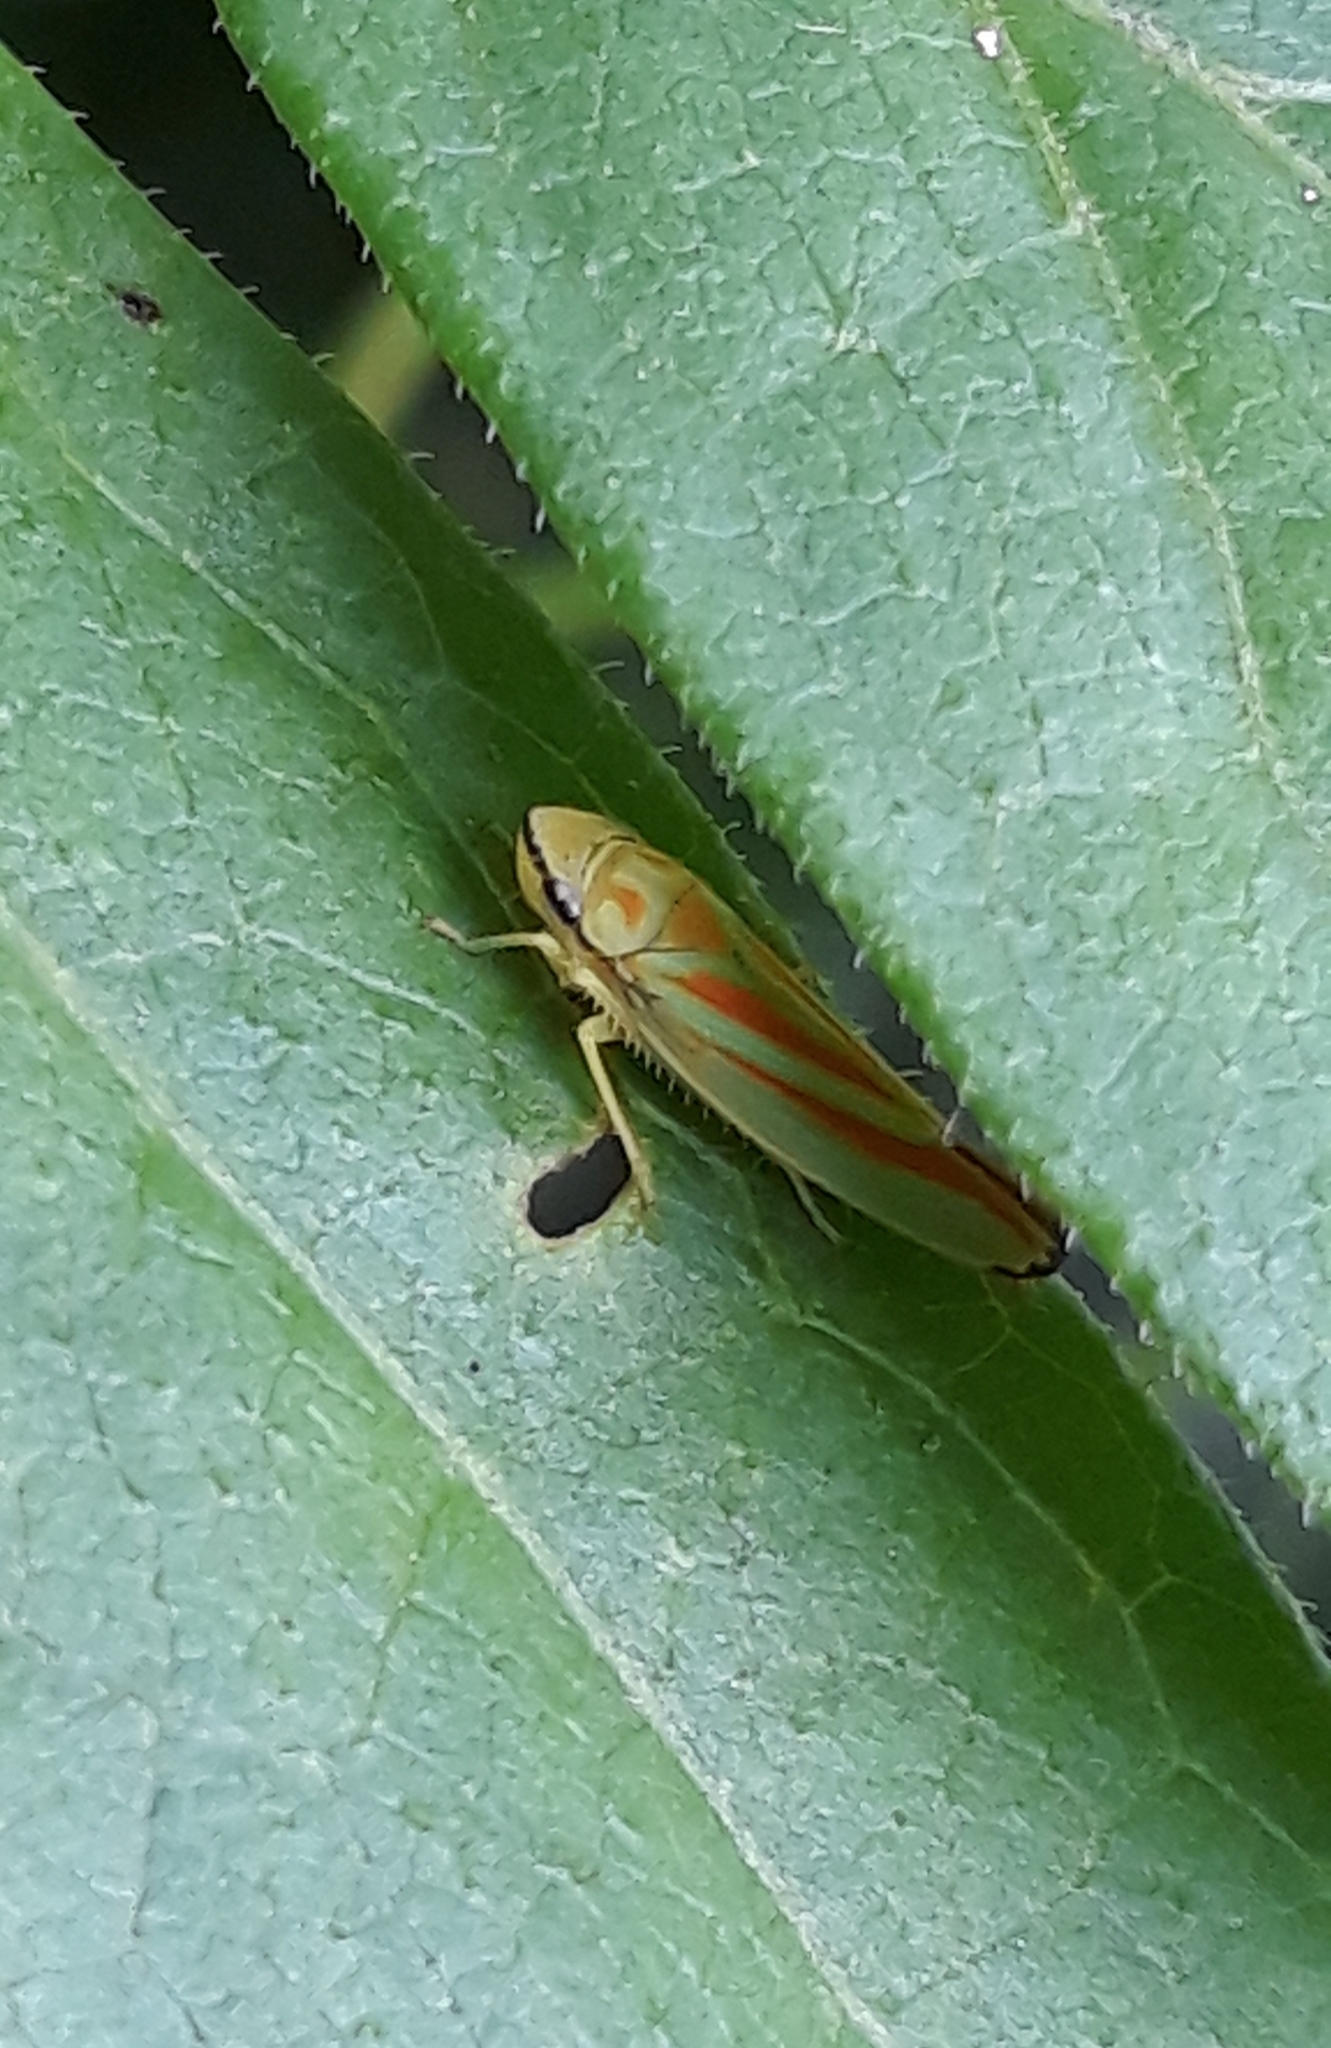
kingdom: Animalia
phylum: Arthropoda
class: Insecta
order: Hemiptera
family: Cicadellidae
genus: Graphocephala
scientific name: Graphocephala fennahi
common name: Rhododendron leafhopper
